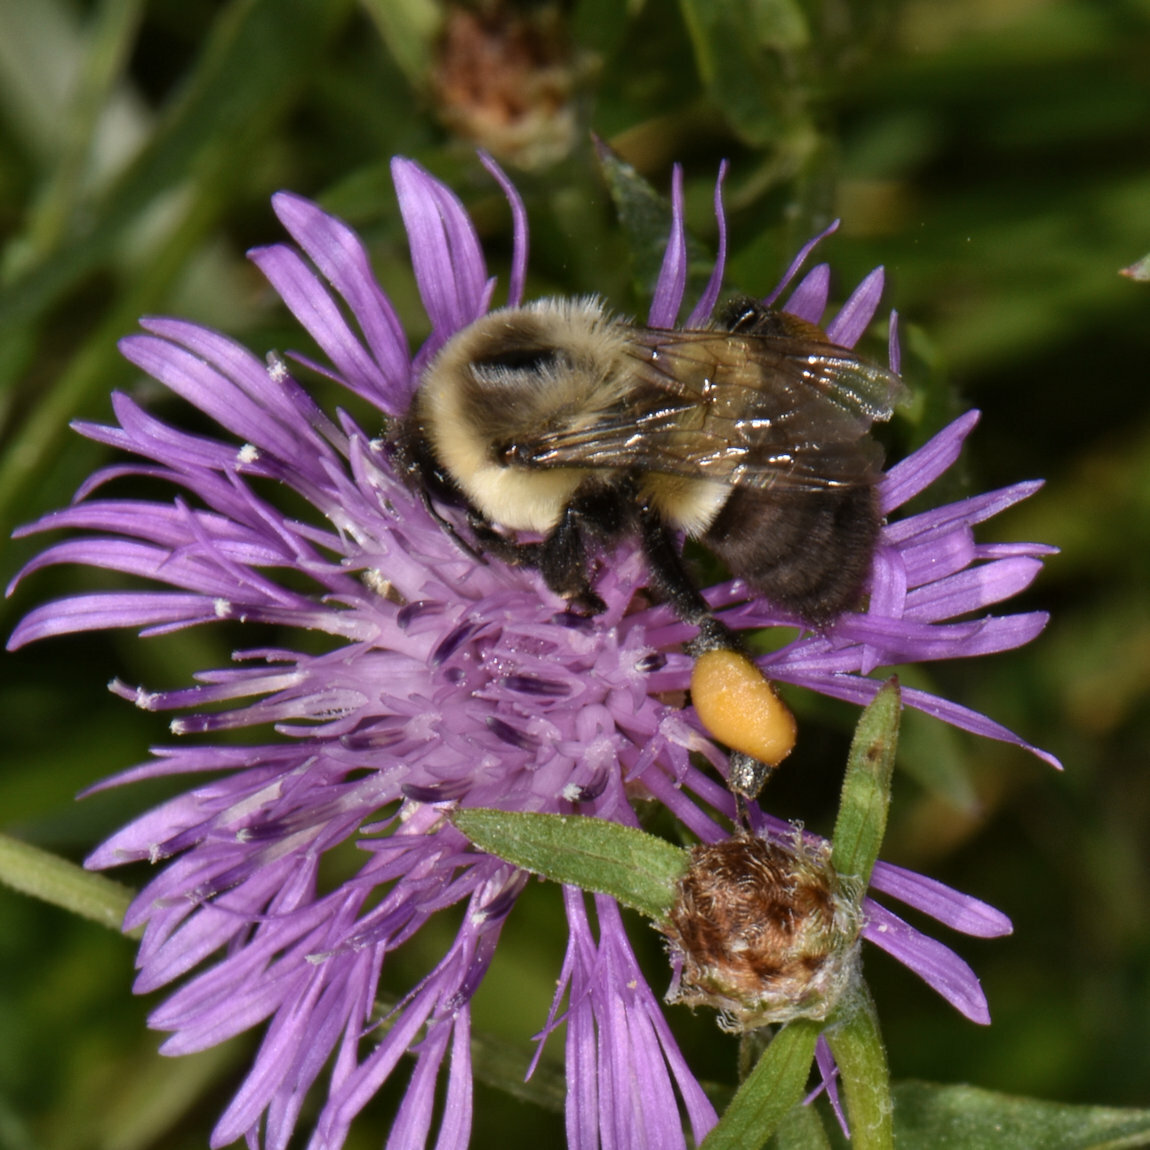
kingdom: Animalia
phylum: Arthropoda
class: Insecta
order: Hymenoptera
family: Apidae
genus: Bombus
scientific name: Bombus impatiens
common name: Common eastern bumble bee
